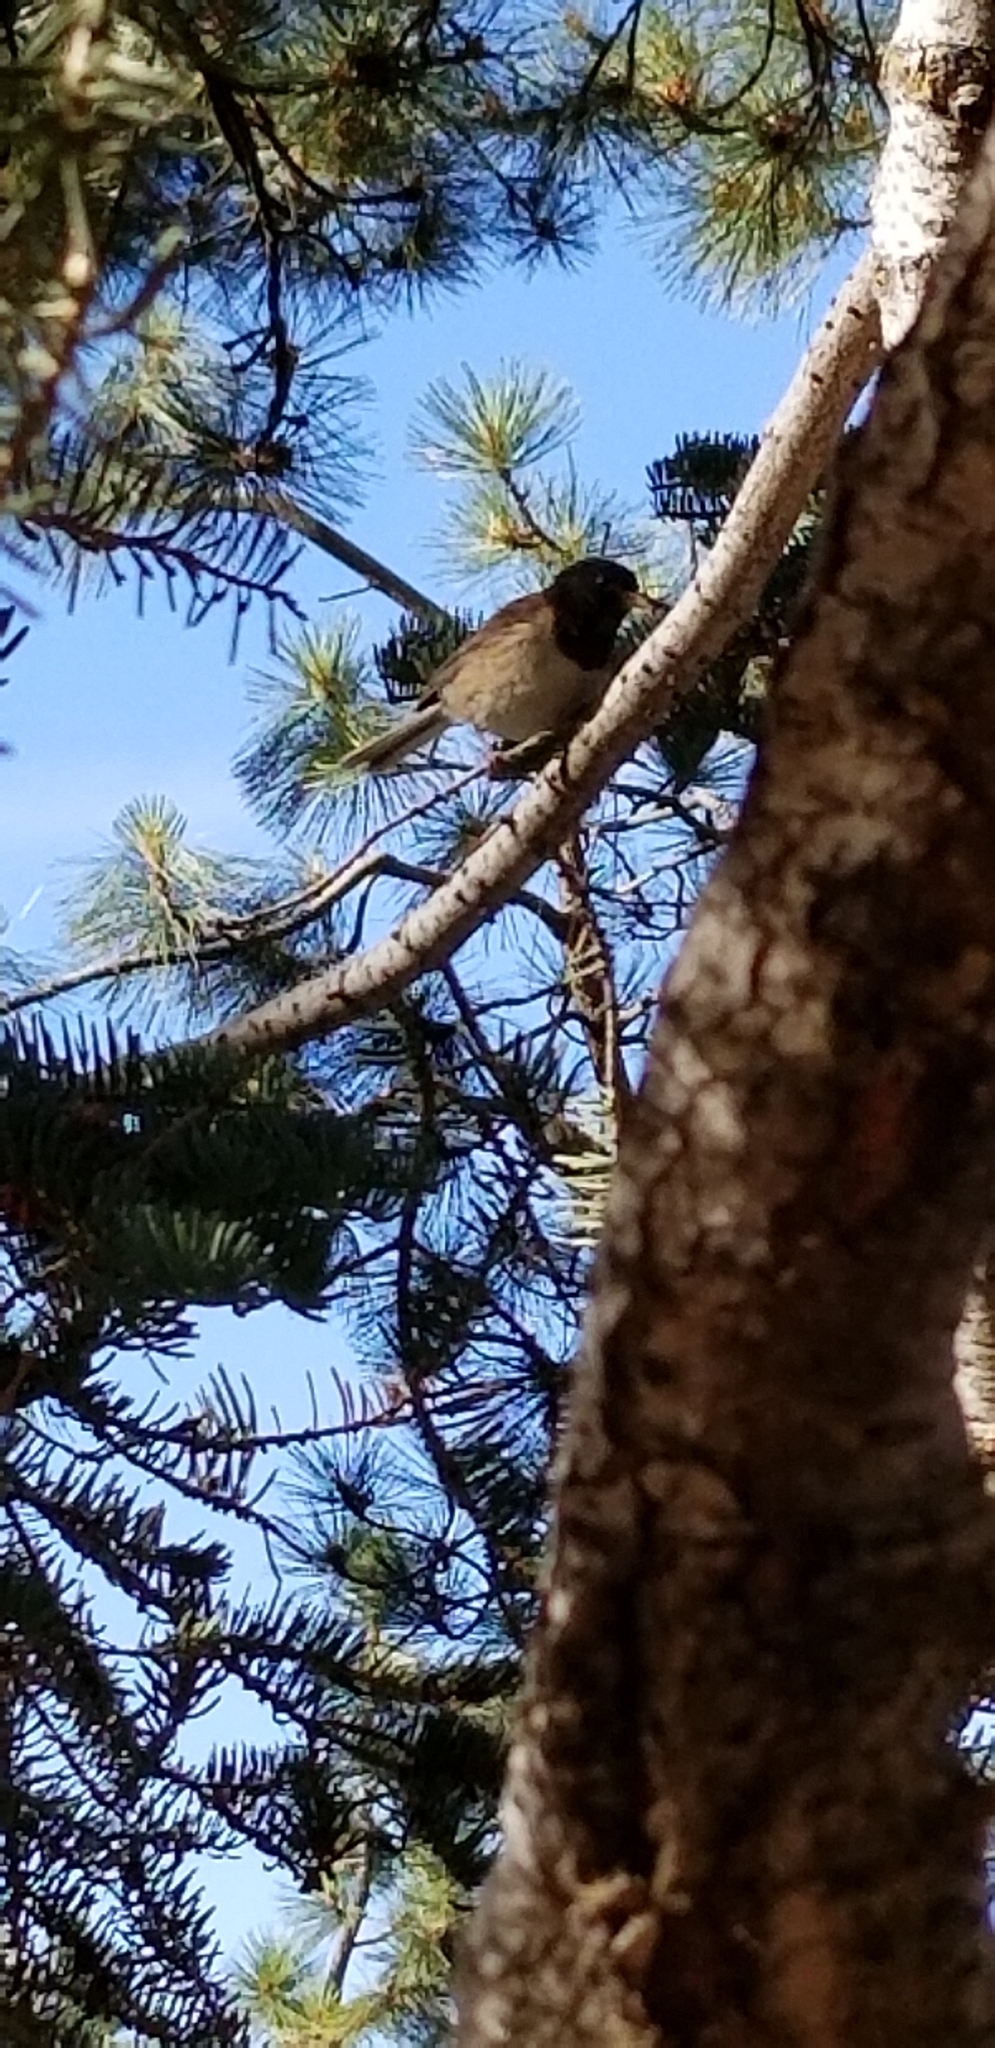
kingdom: Animalia
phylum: Chordata
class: Aves
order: Passeriformes
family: Passerellidae
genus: Junco
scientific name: Junco hyemalis
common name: Dark-eyed junco
